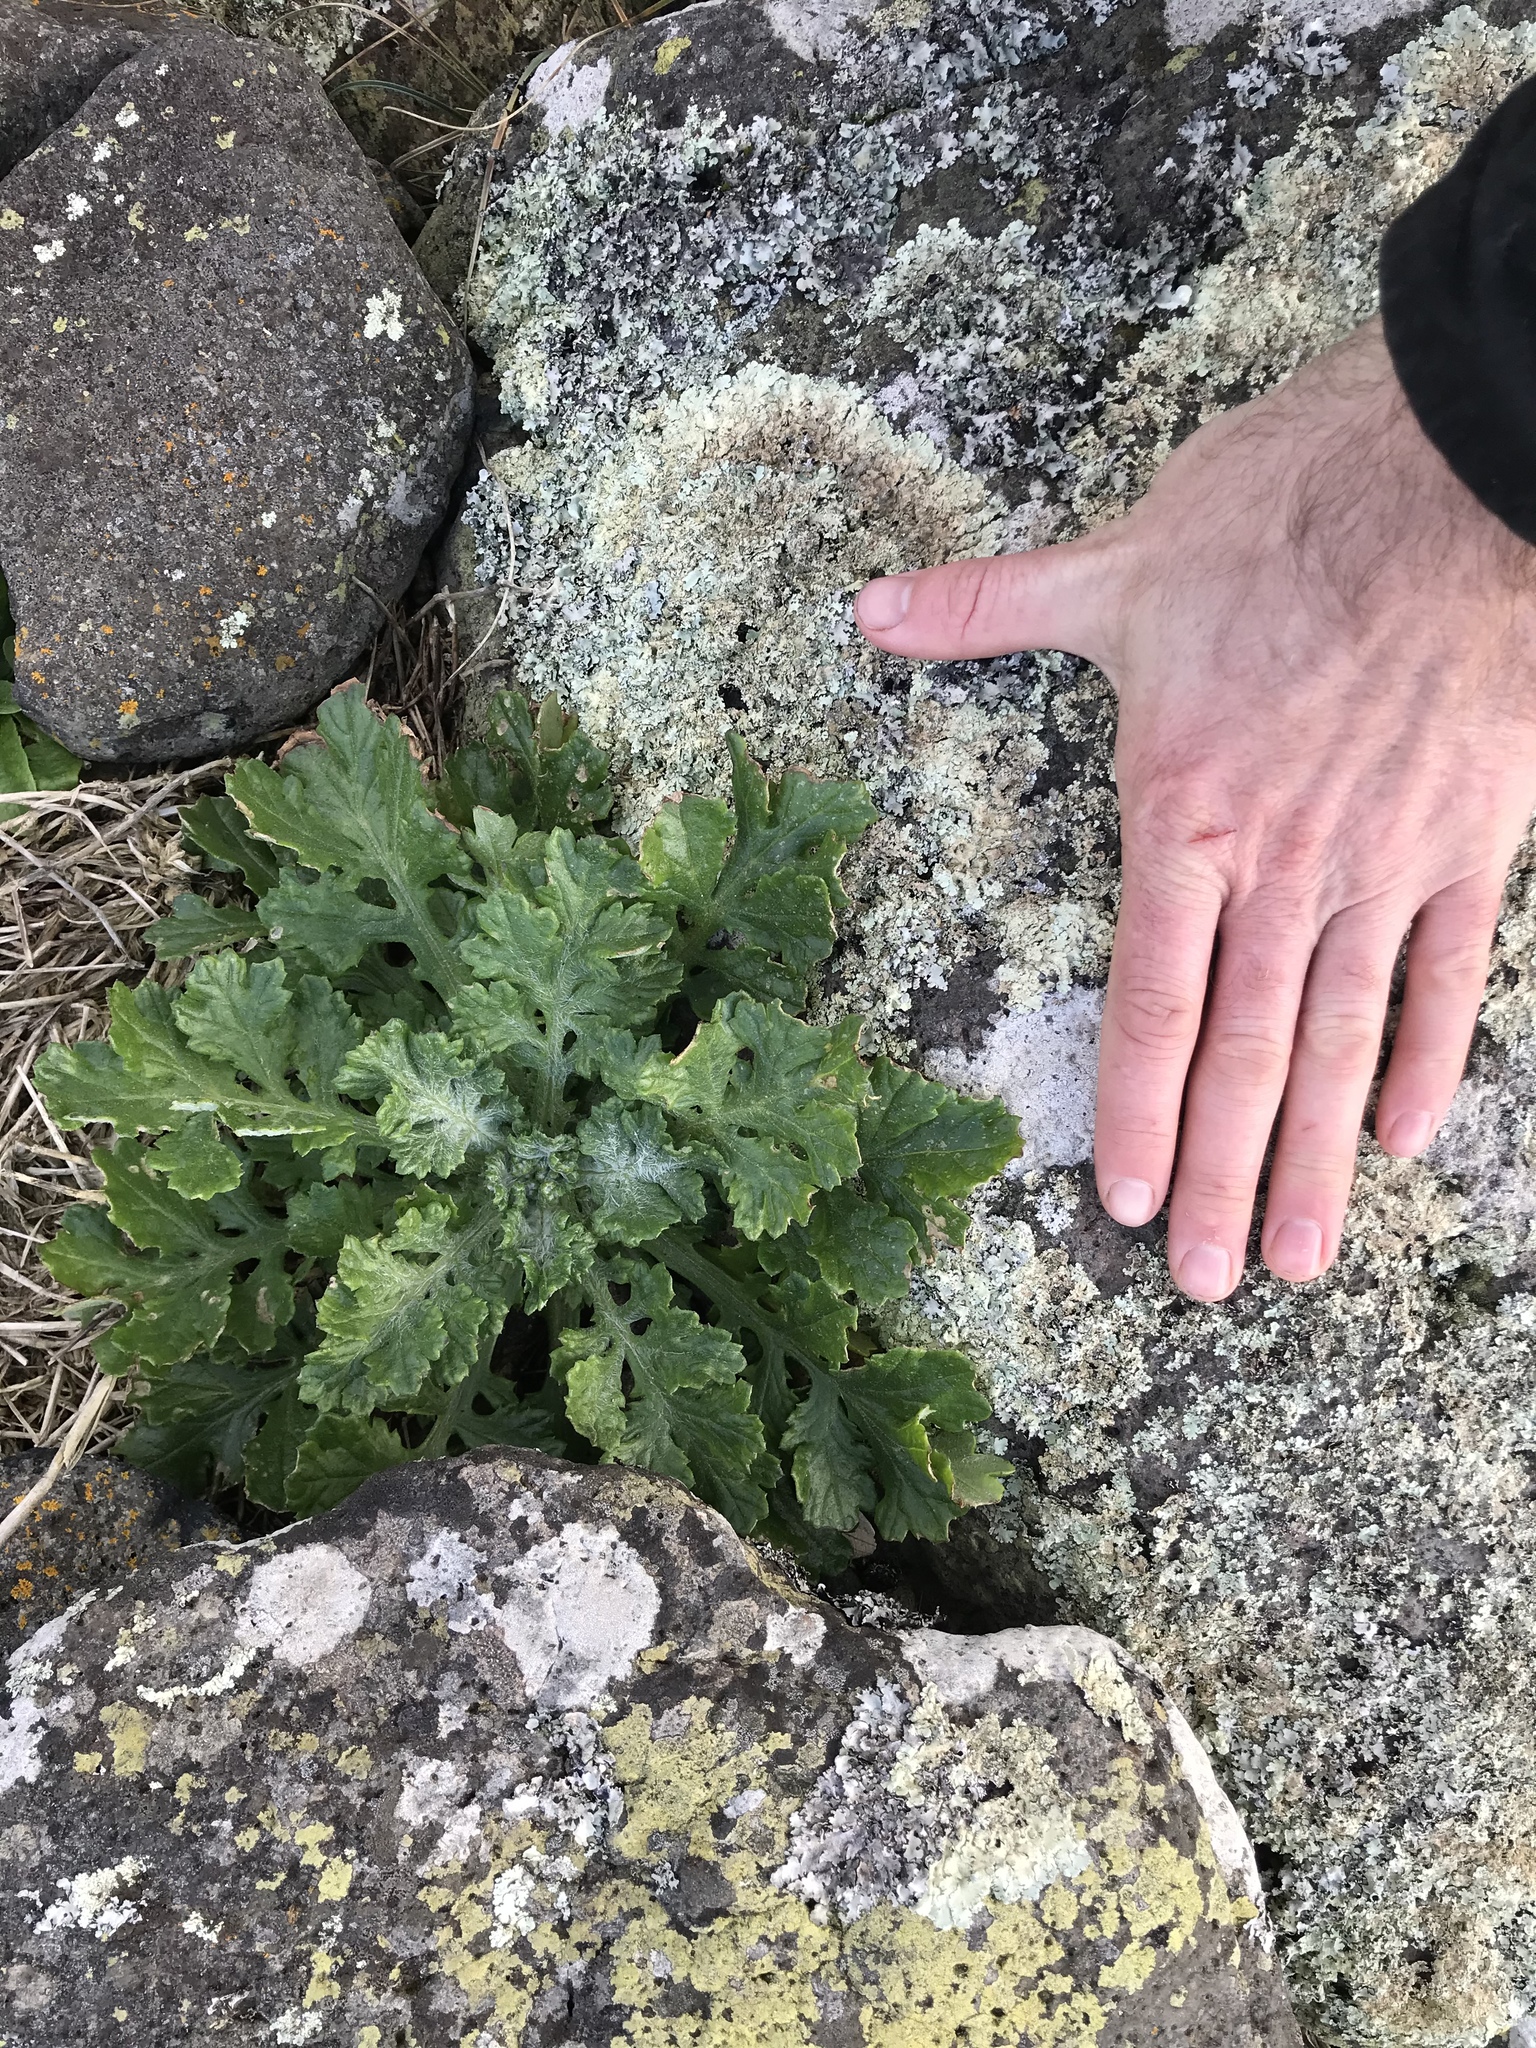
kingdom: Plantae
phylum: Tracheophyta
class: Magnoliopsida
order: Asterales
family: Asteraceae
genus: Senecio
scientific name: Senecio radiolatus
